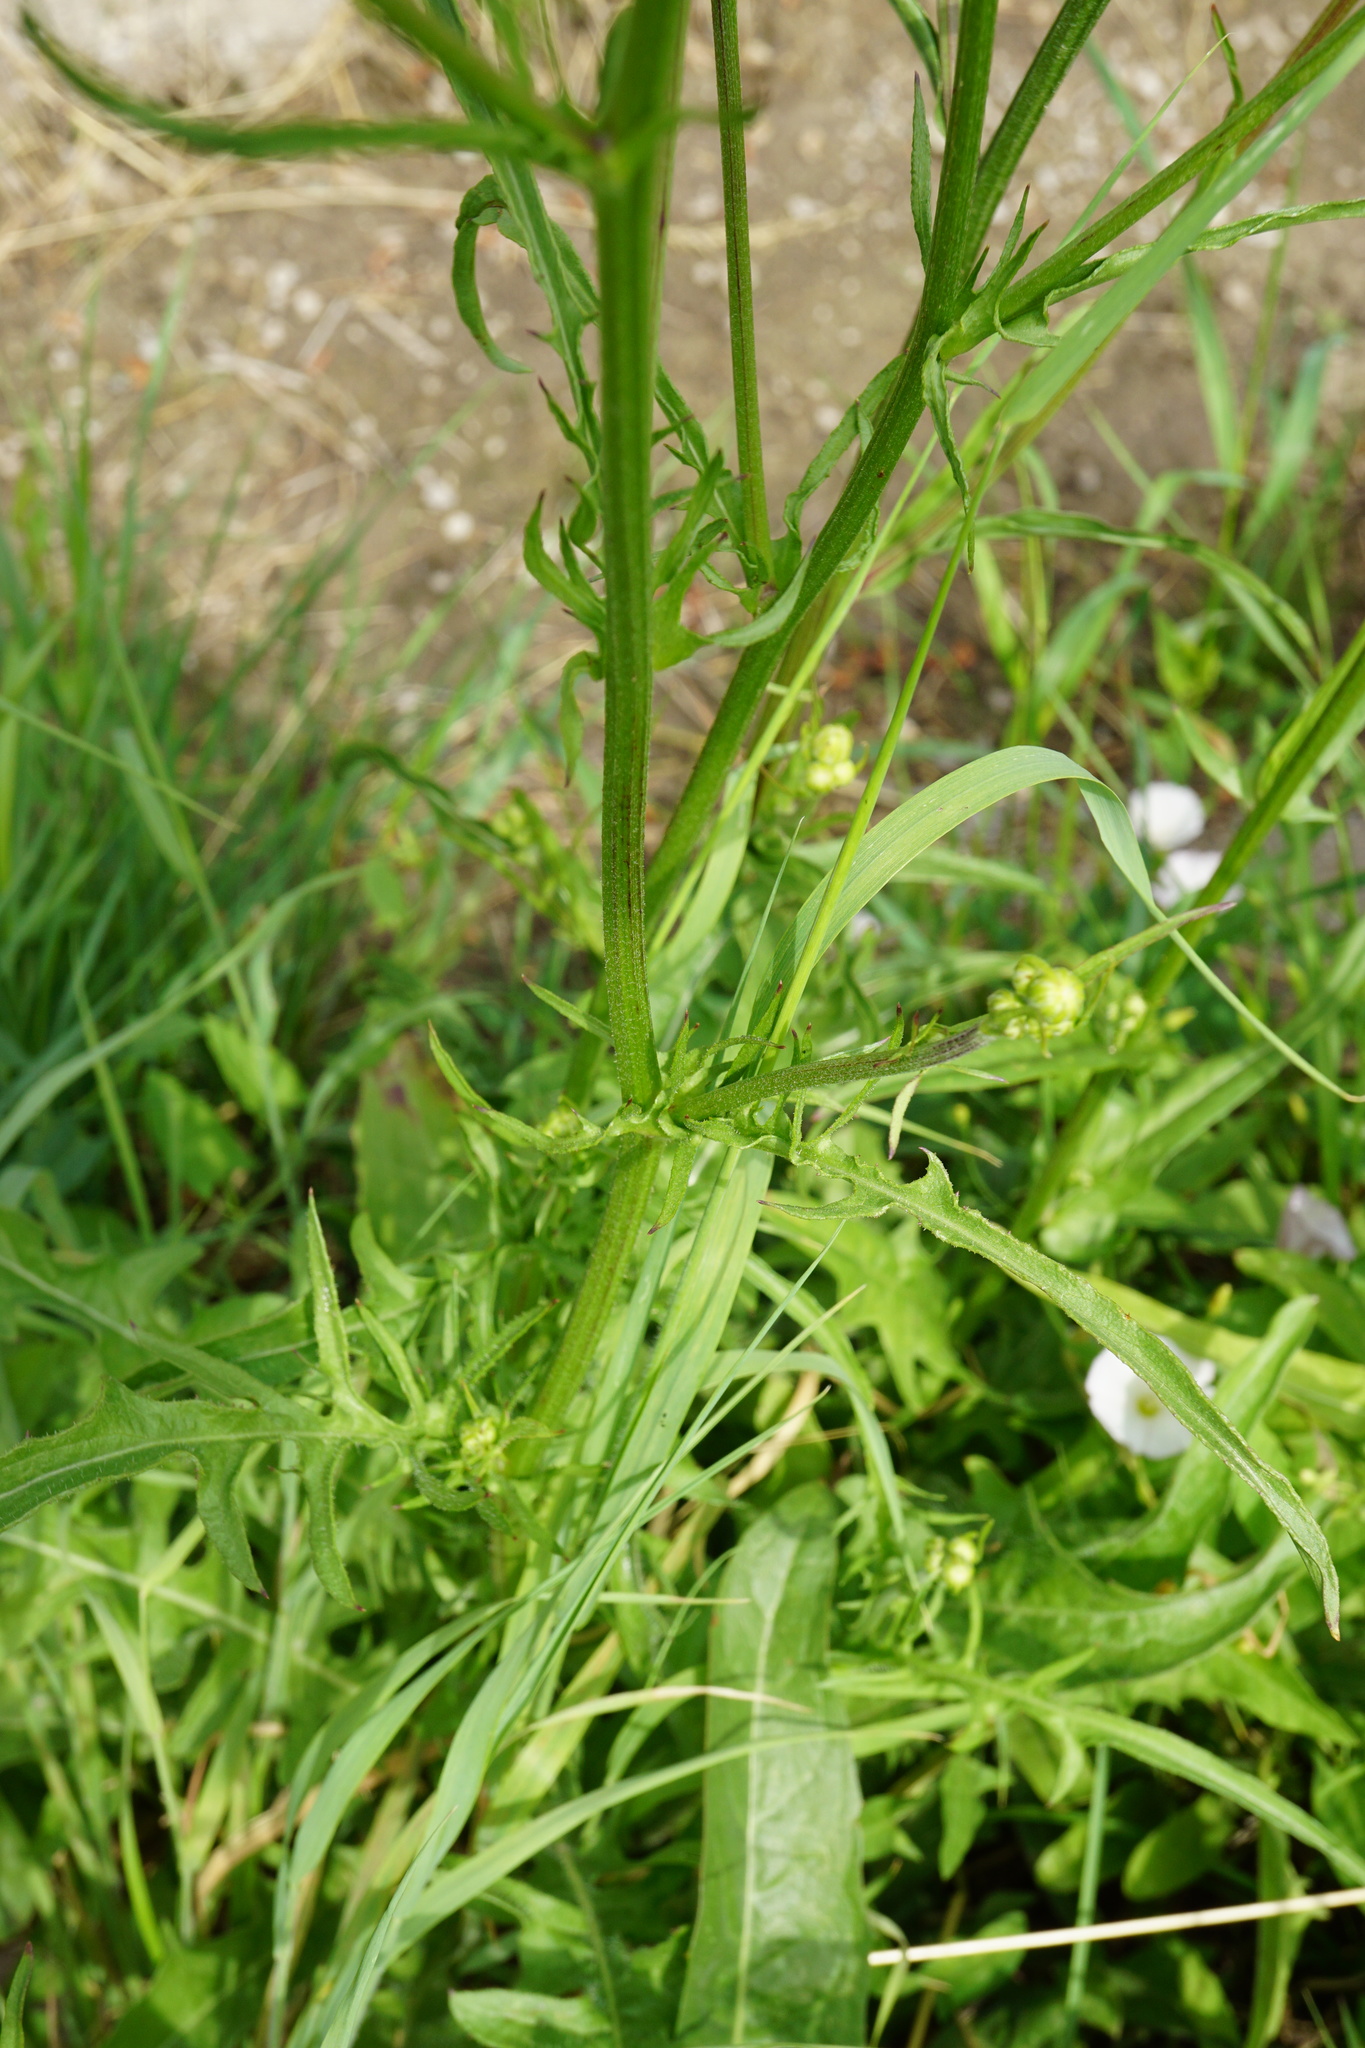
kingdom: Plantae
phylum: Tracheophyta
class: Magnoliopsida
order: Asterales
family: Asteraceae
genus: Crepis
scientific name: Crepis biennis
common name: Rough hawk's-beard
